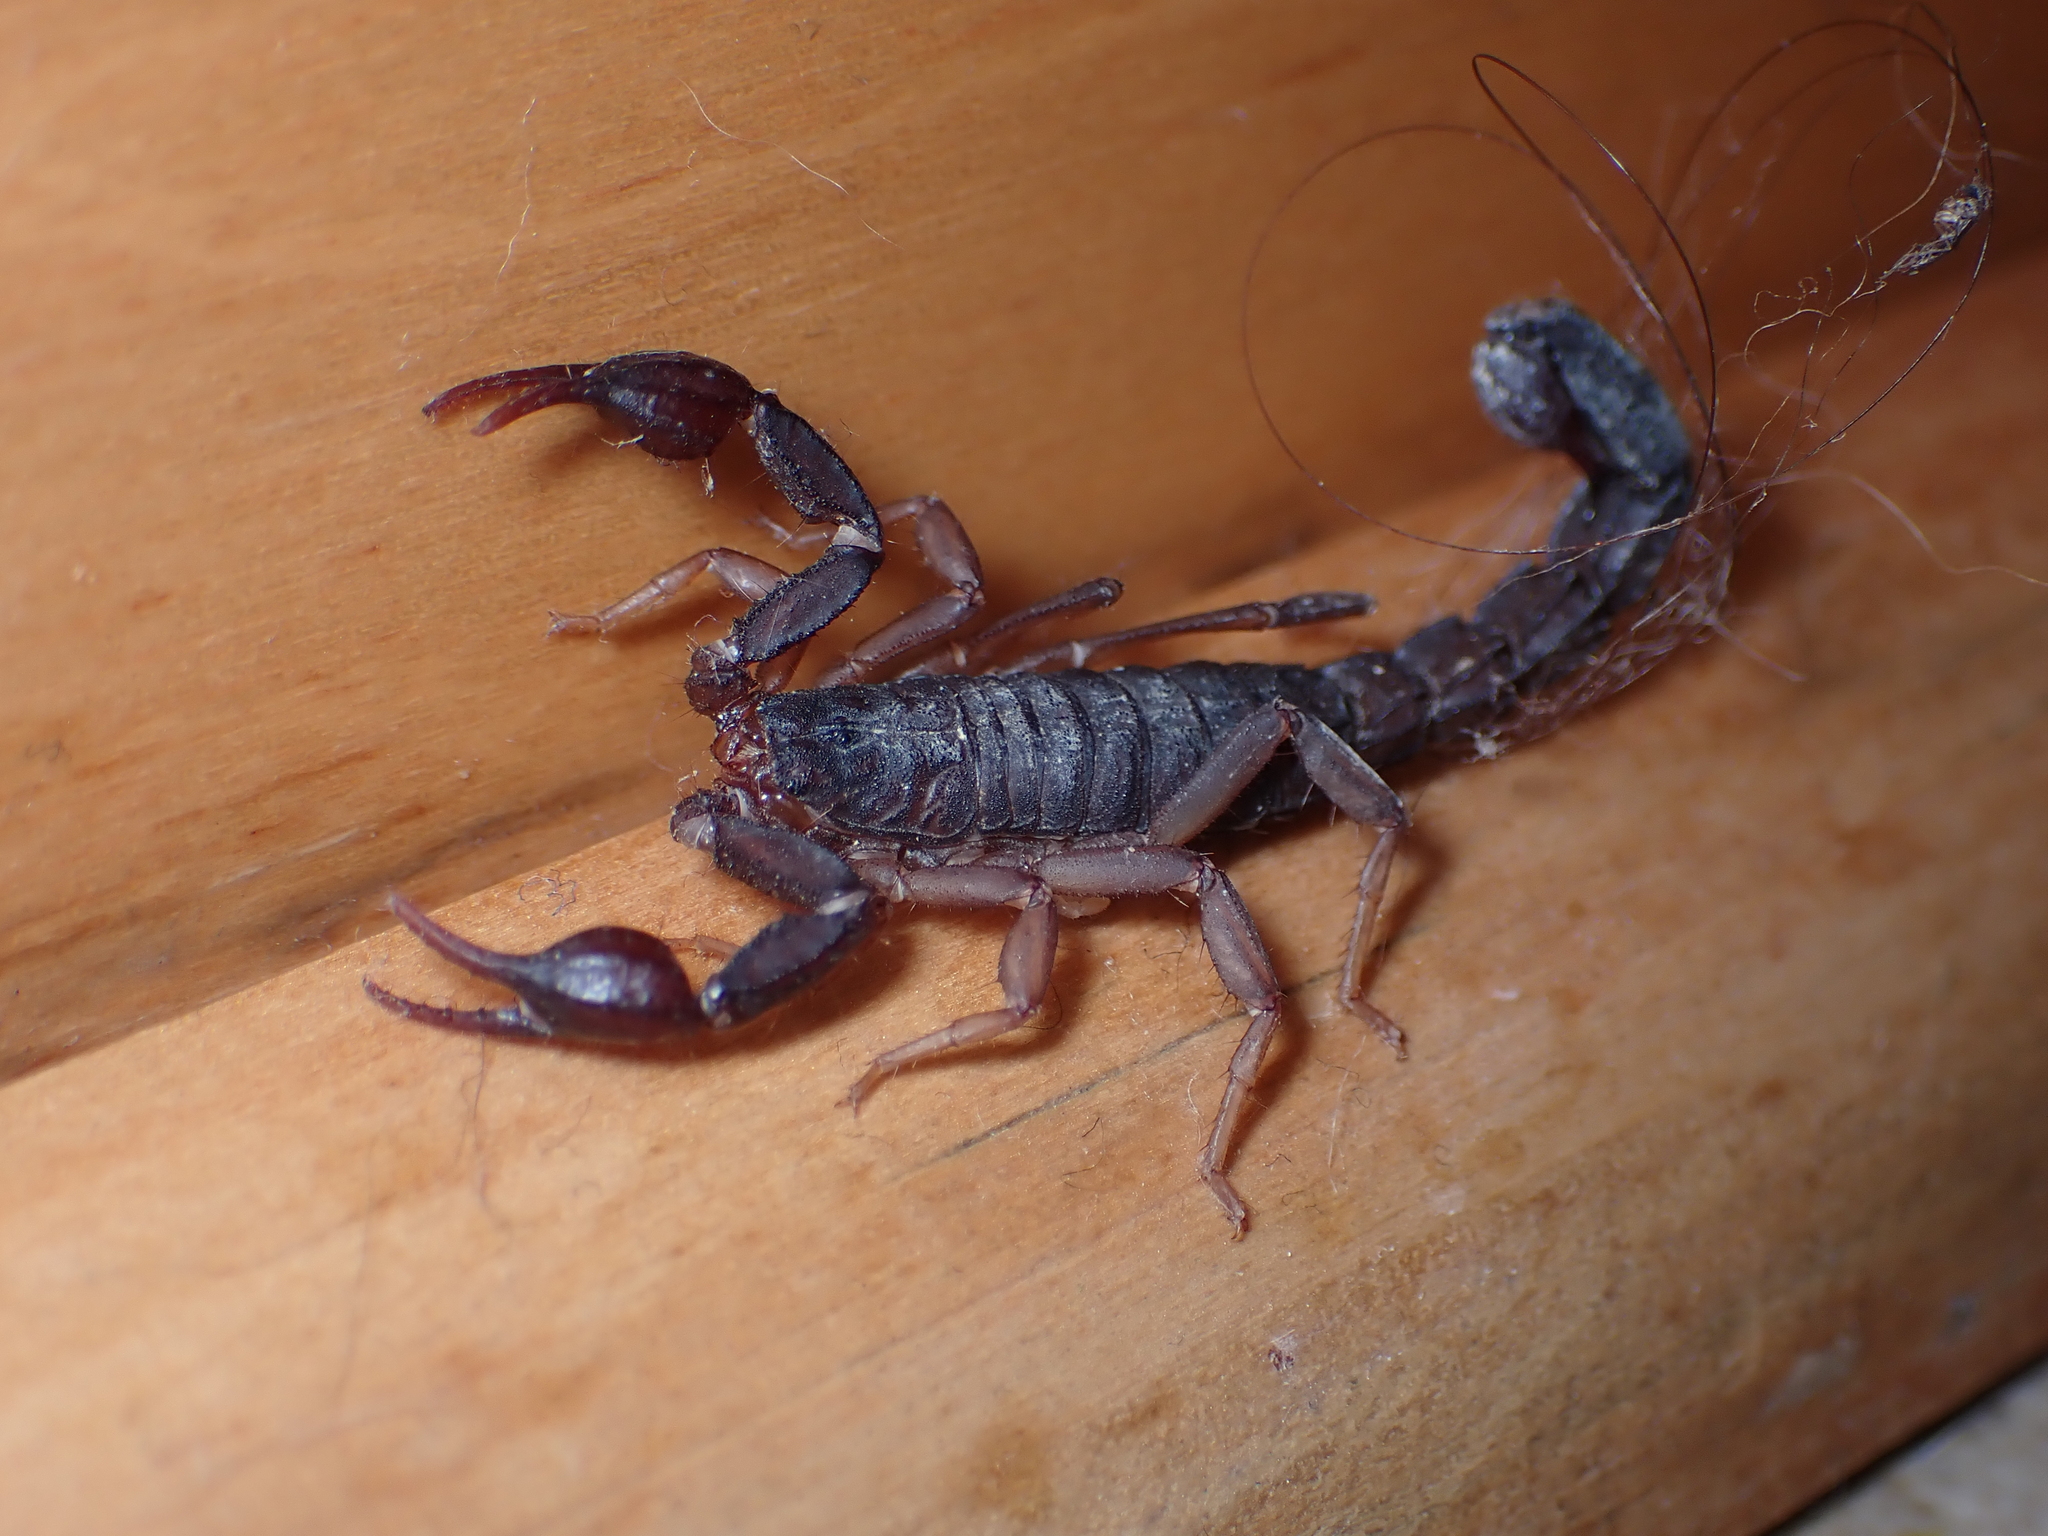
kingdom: Animalia
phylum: Arthropoda
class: Arachnida
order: Scorpiones
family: Vaejovidae
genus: Vaejovis
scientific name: Vaejovis carolinianus
